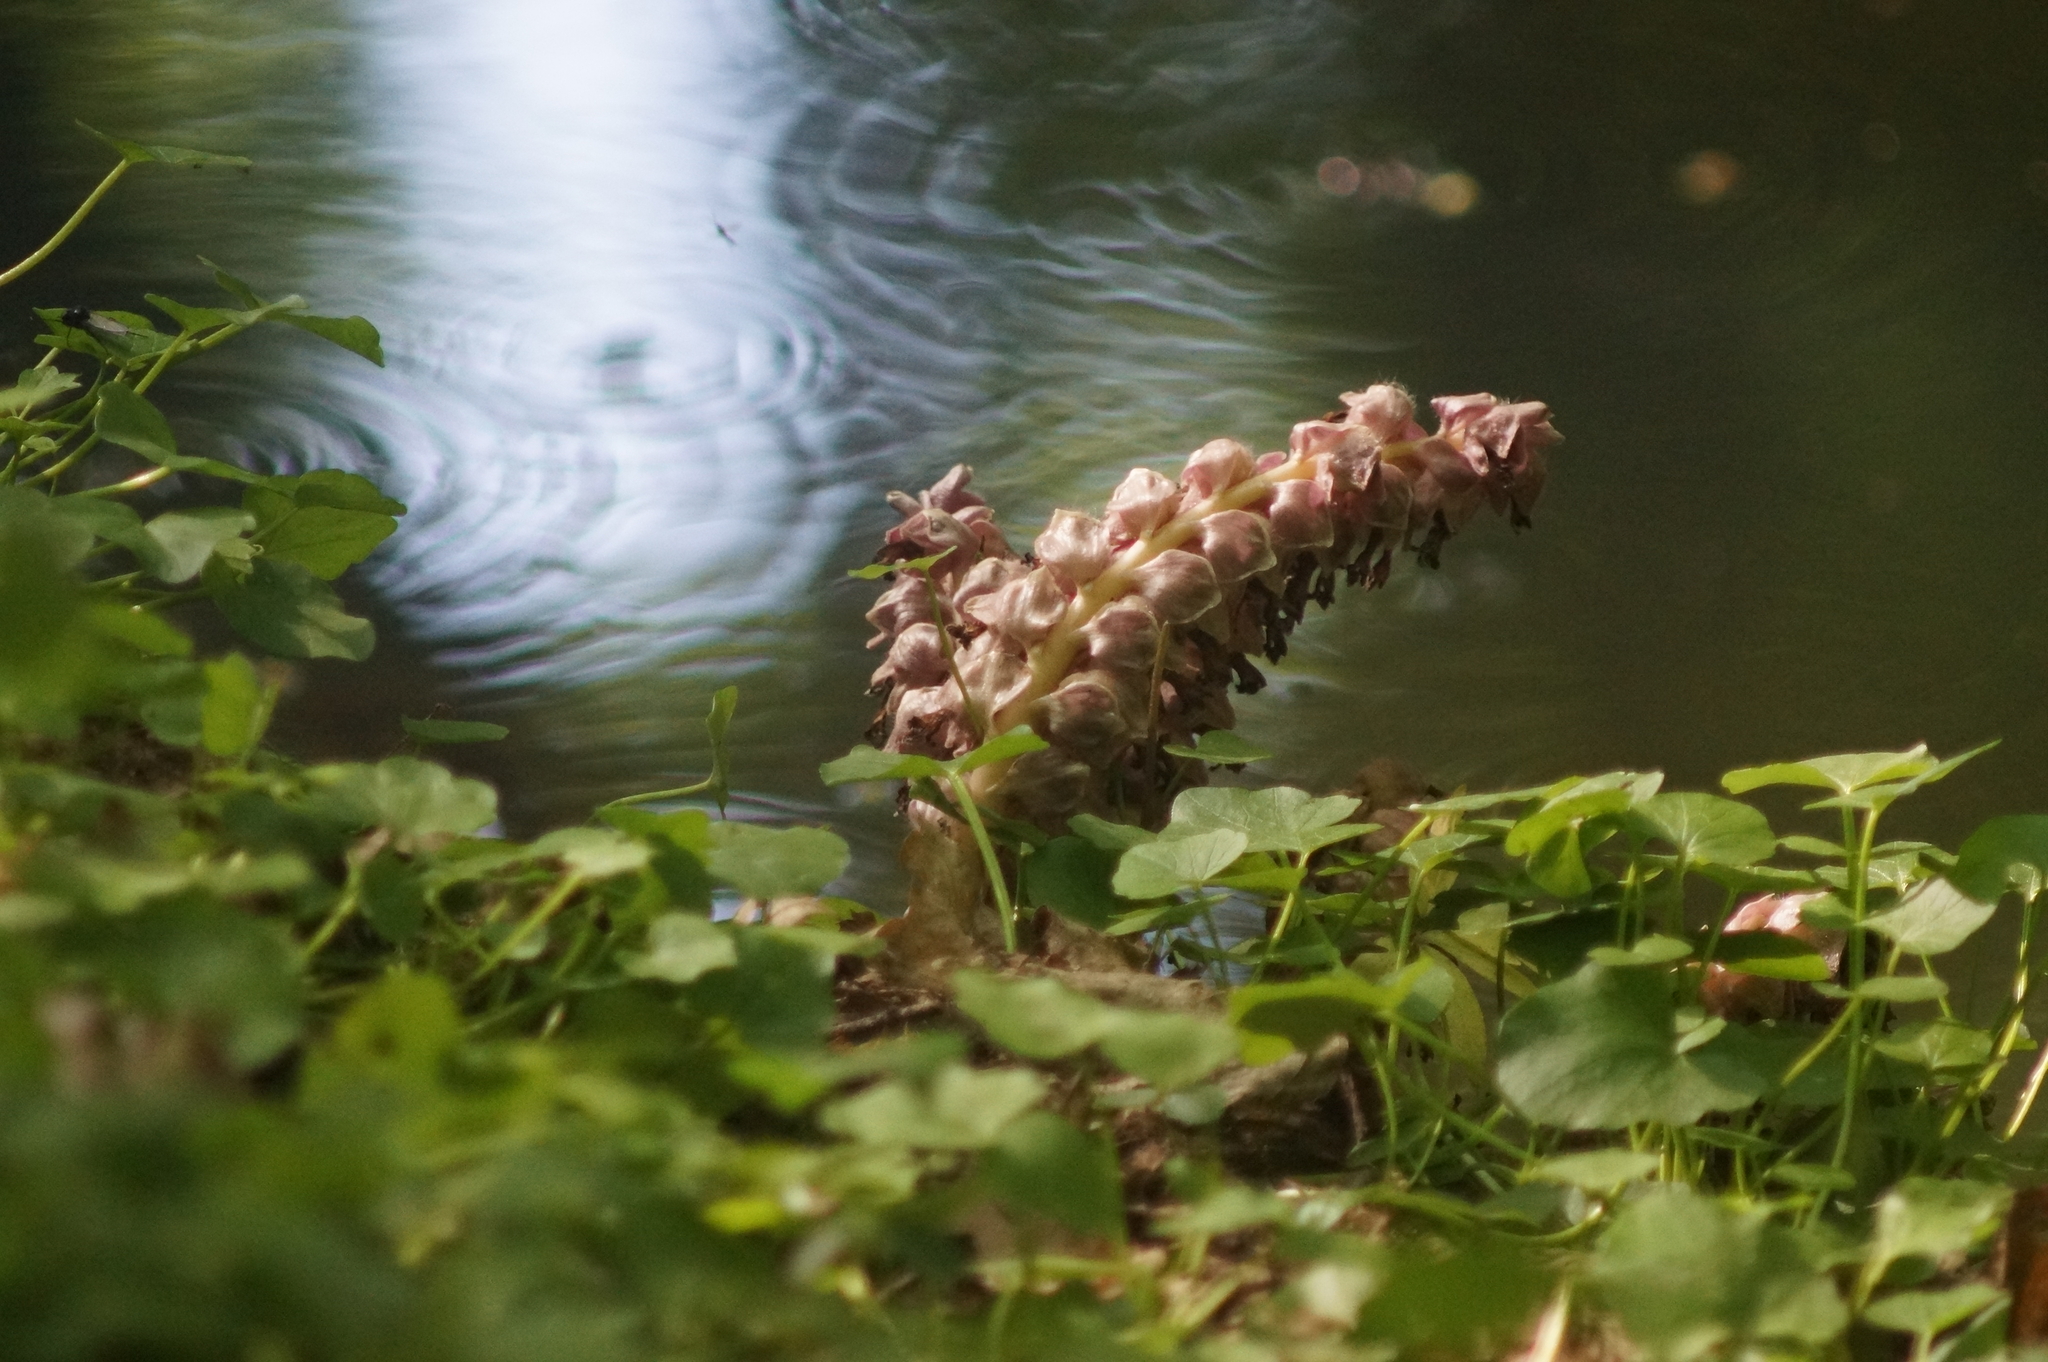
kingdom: Plantae
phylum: Tracheophyta
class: Magnoliopsida
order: Lamiales
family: Orobanchaceae
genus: Lathraea
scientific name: Lathraea squamaria
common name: Toothwort
